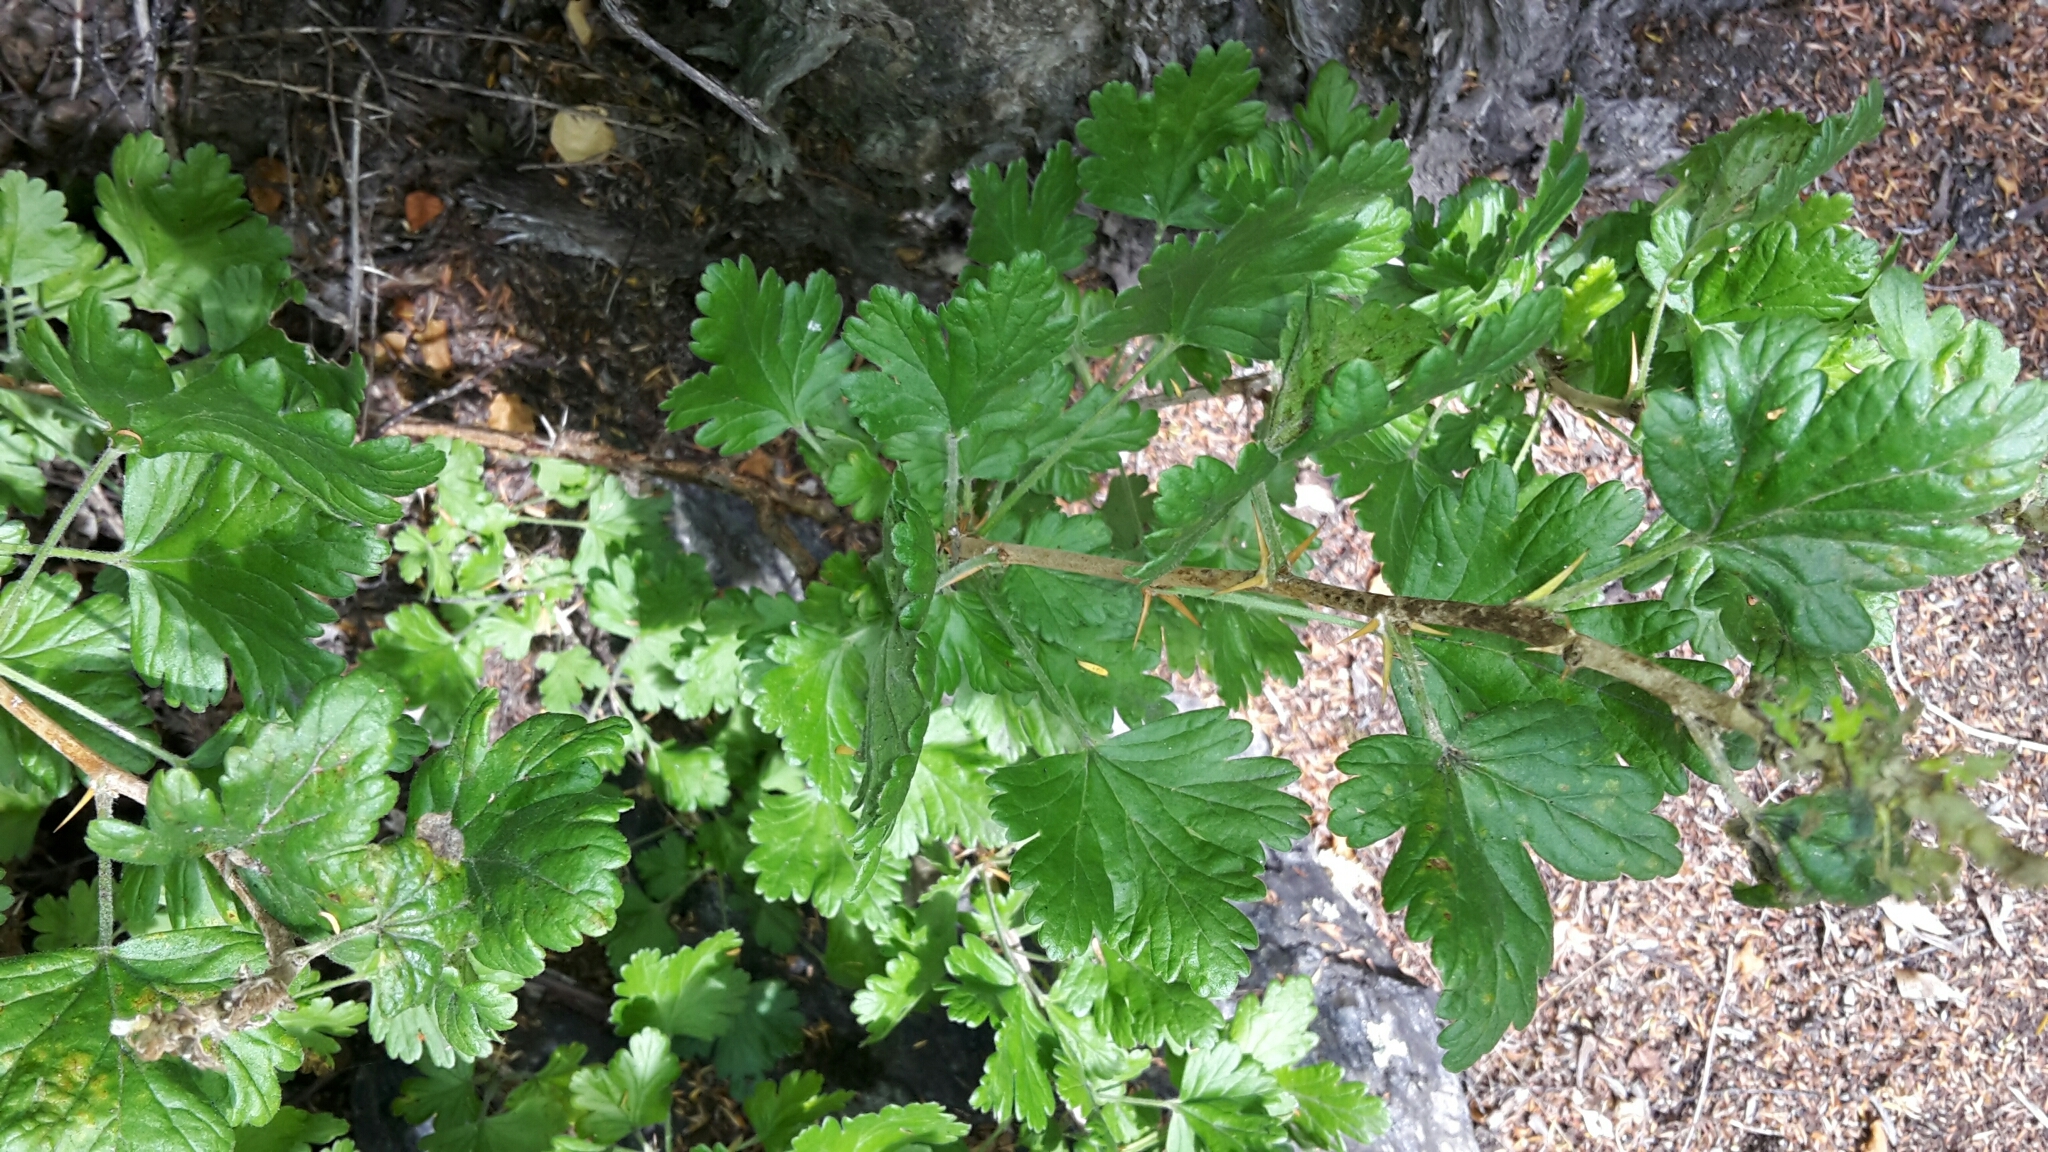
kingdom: Plantae
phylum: Tracheophyta
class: Magnoliopsida
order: Saxifragales
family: Grossulariaceae
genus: Ribes
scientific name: Ribes uva-crispa
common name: Gooseberry
